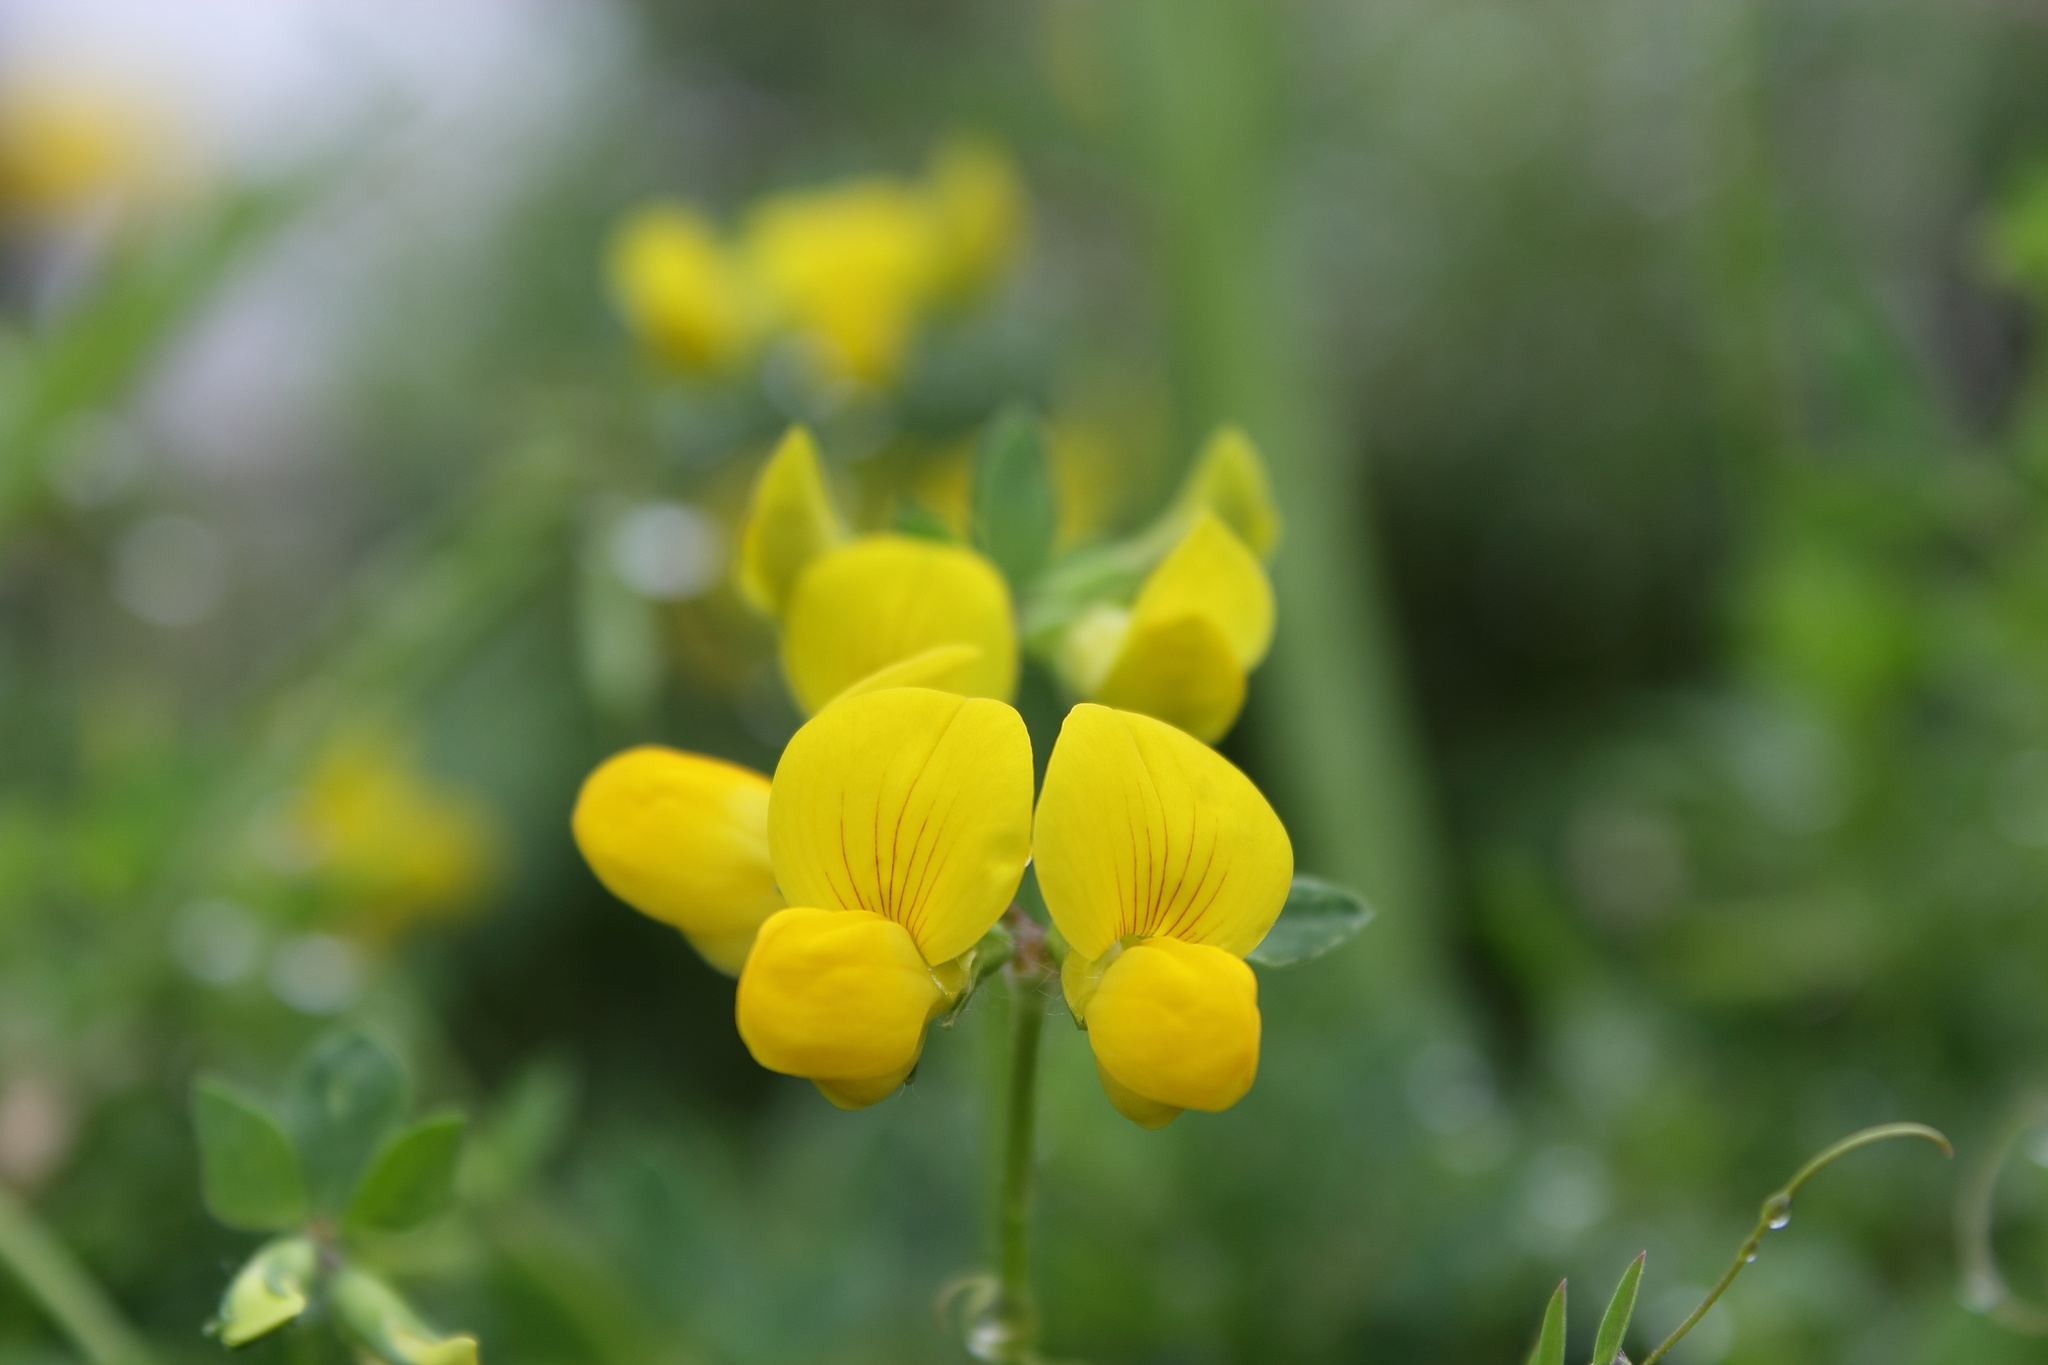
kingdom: Plantae
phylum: Tracheophyta
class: Magnoliopsida
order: Fabales
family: Fabaceae
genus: Lotus
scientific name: Lotus japonicus
